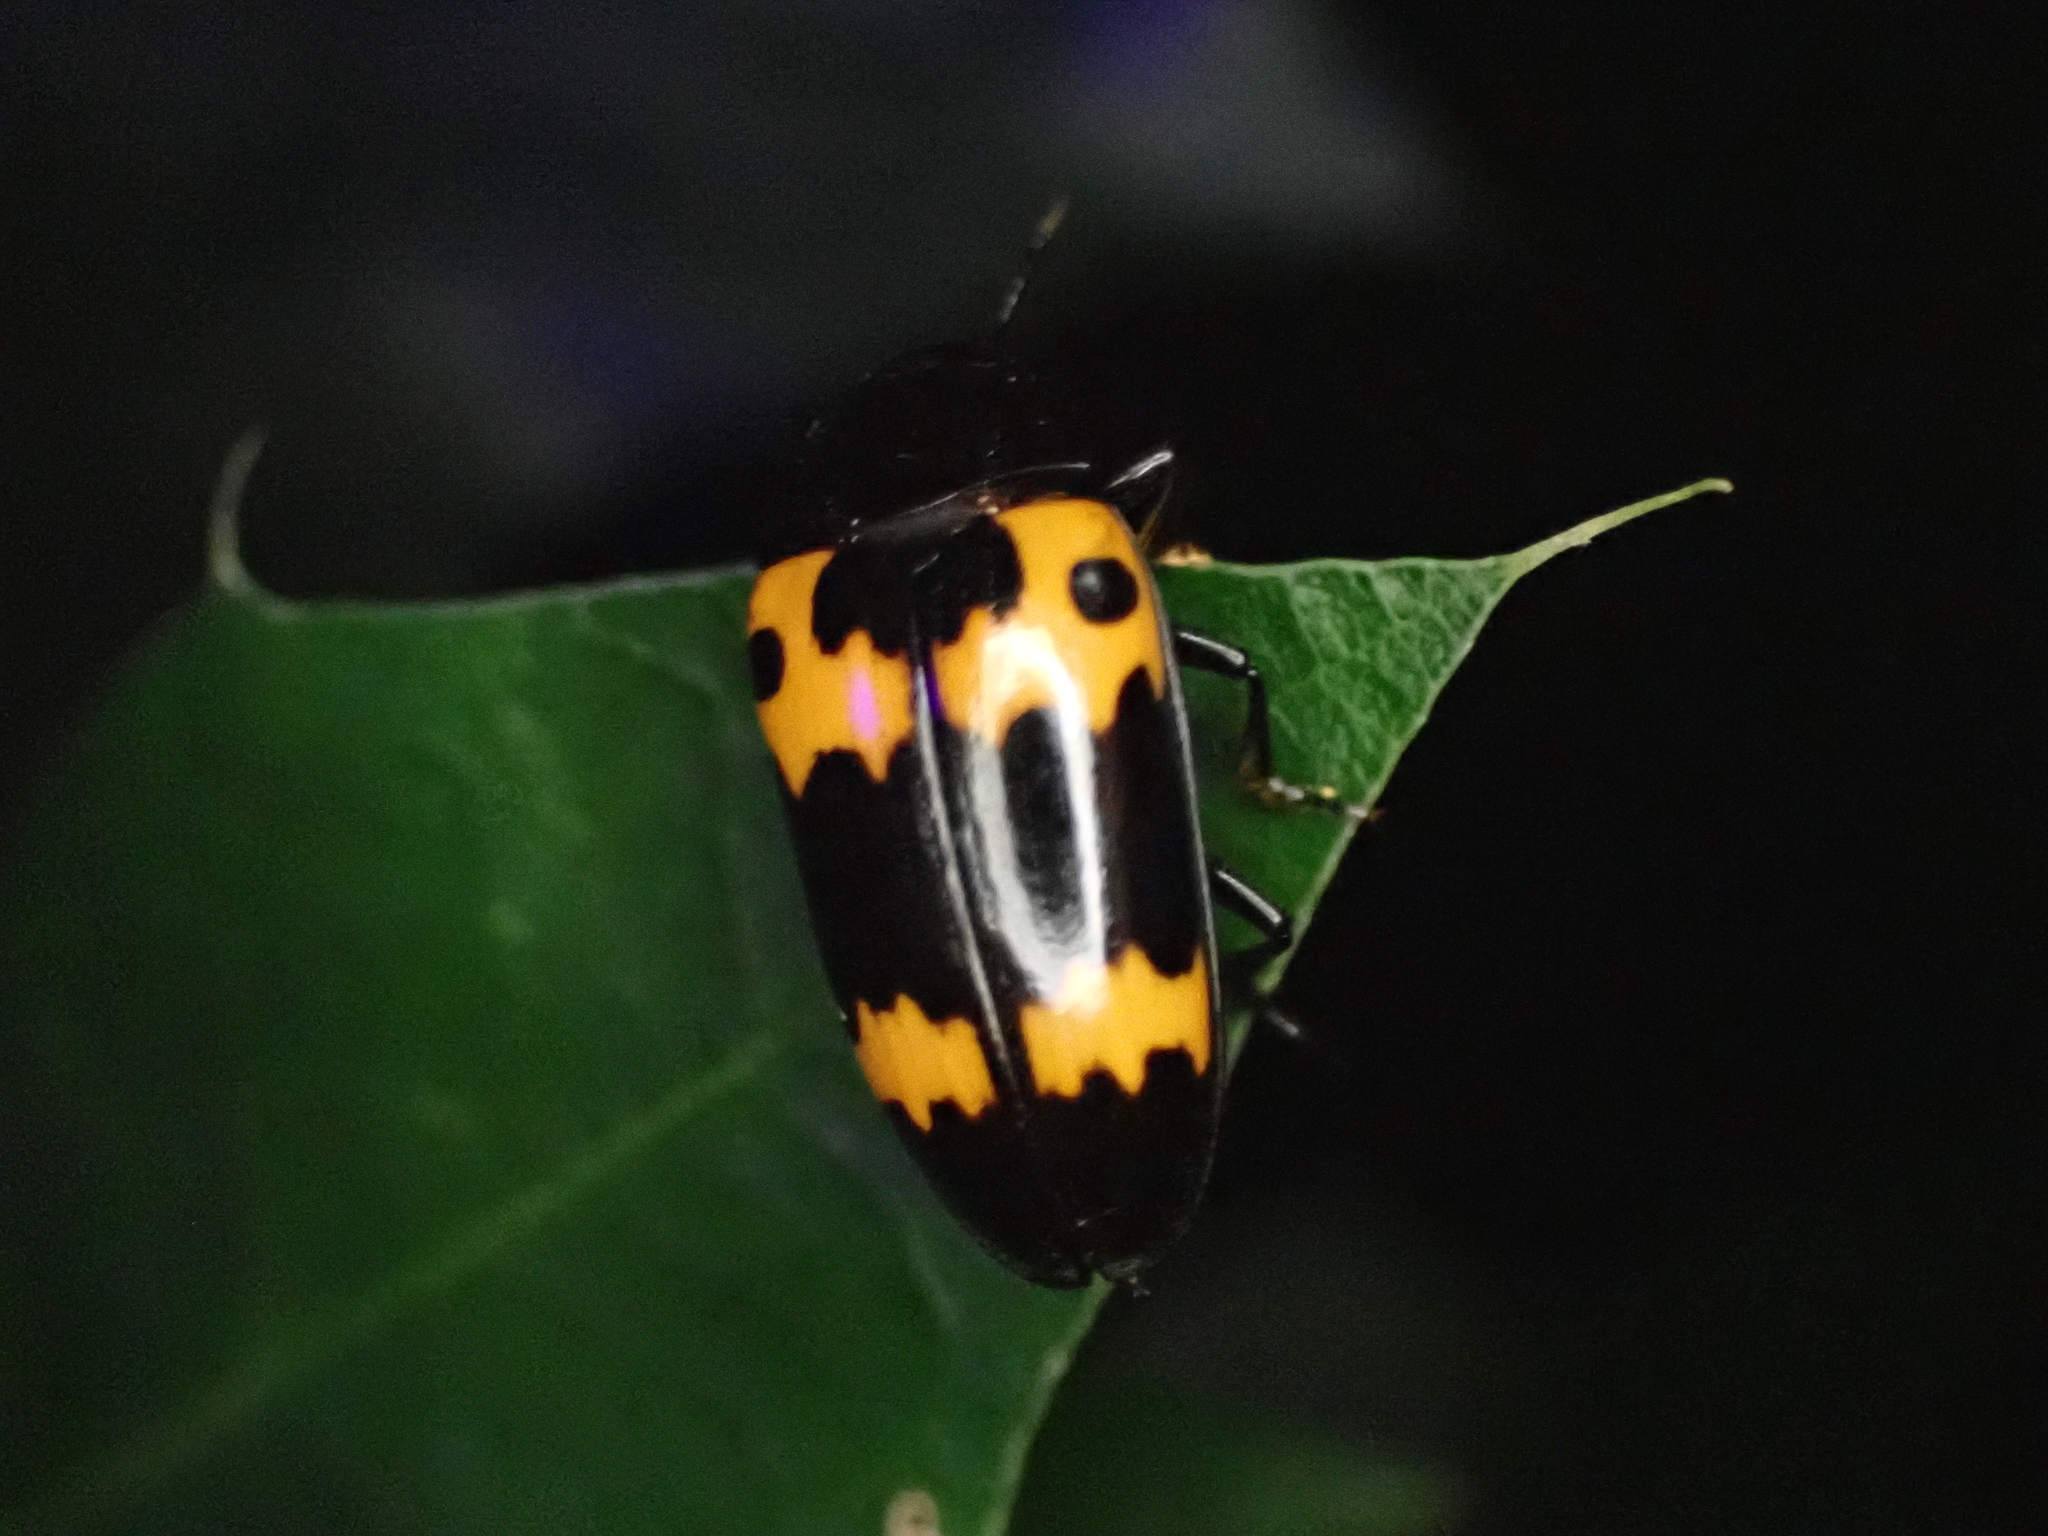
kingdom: Animalia
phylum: Arthropoda
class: Insecta
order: Coleoptera
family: Erotylidae
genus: Megalodacne
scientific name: Megalodacne fasciata
